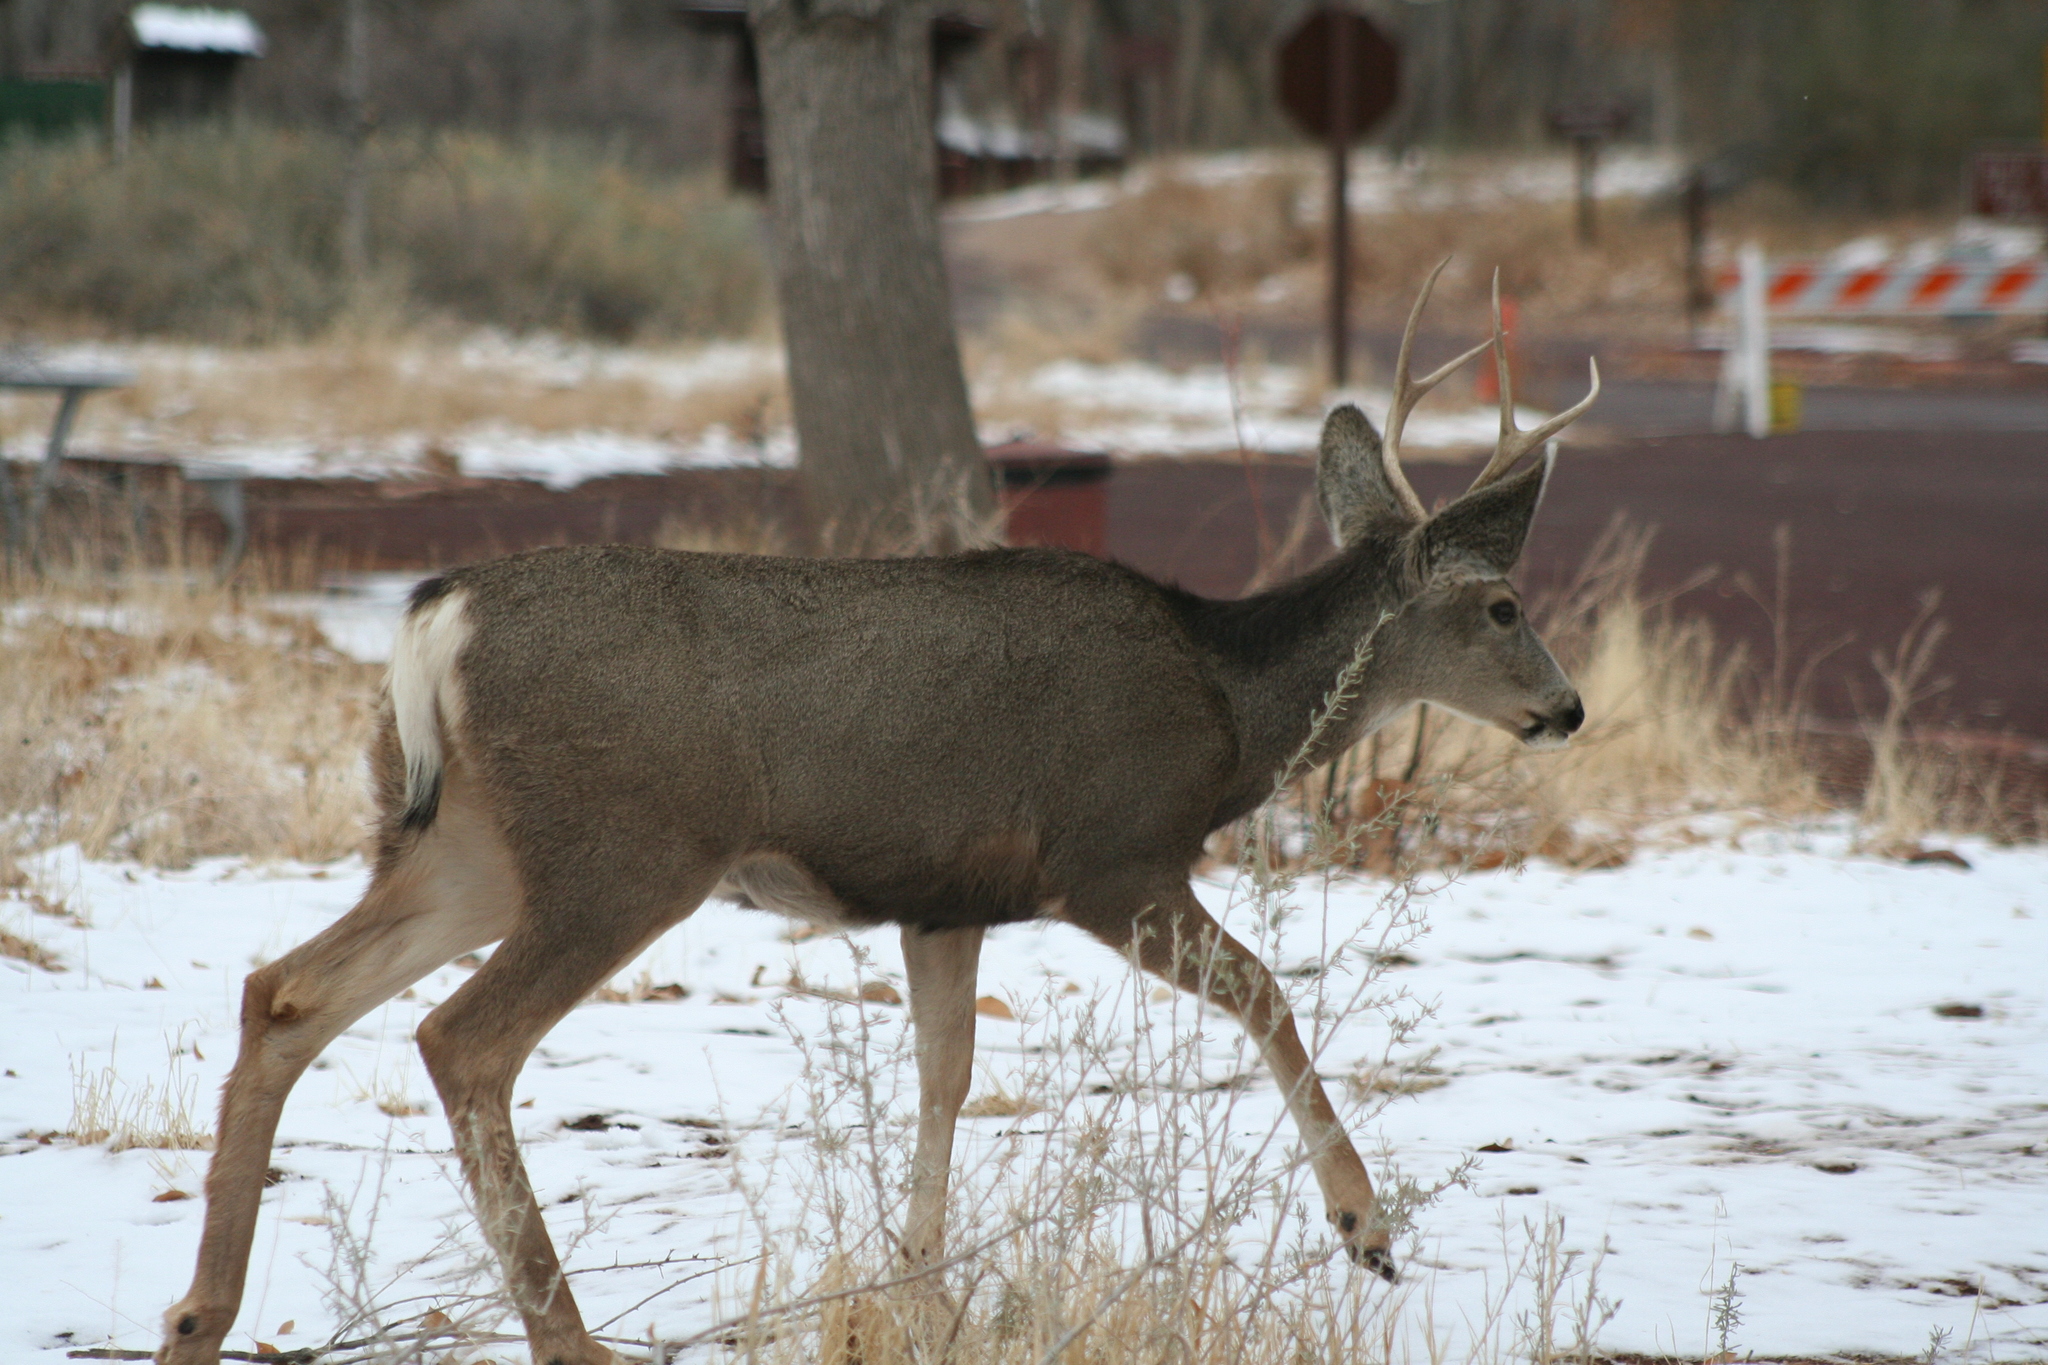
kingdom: Animalia
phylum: Chordata
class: Mammalia
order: Artiodactyla
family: Cervidae
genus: Odocoileus
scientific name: Odocoileus hemionus
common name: Mule deer
